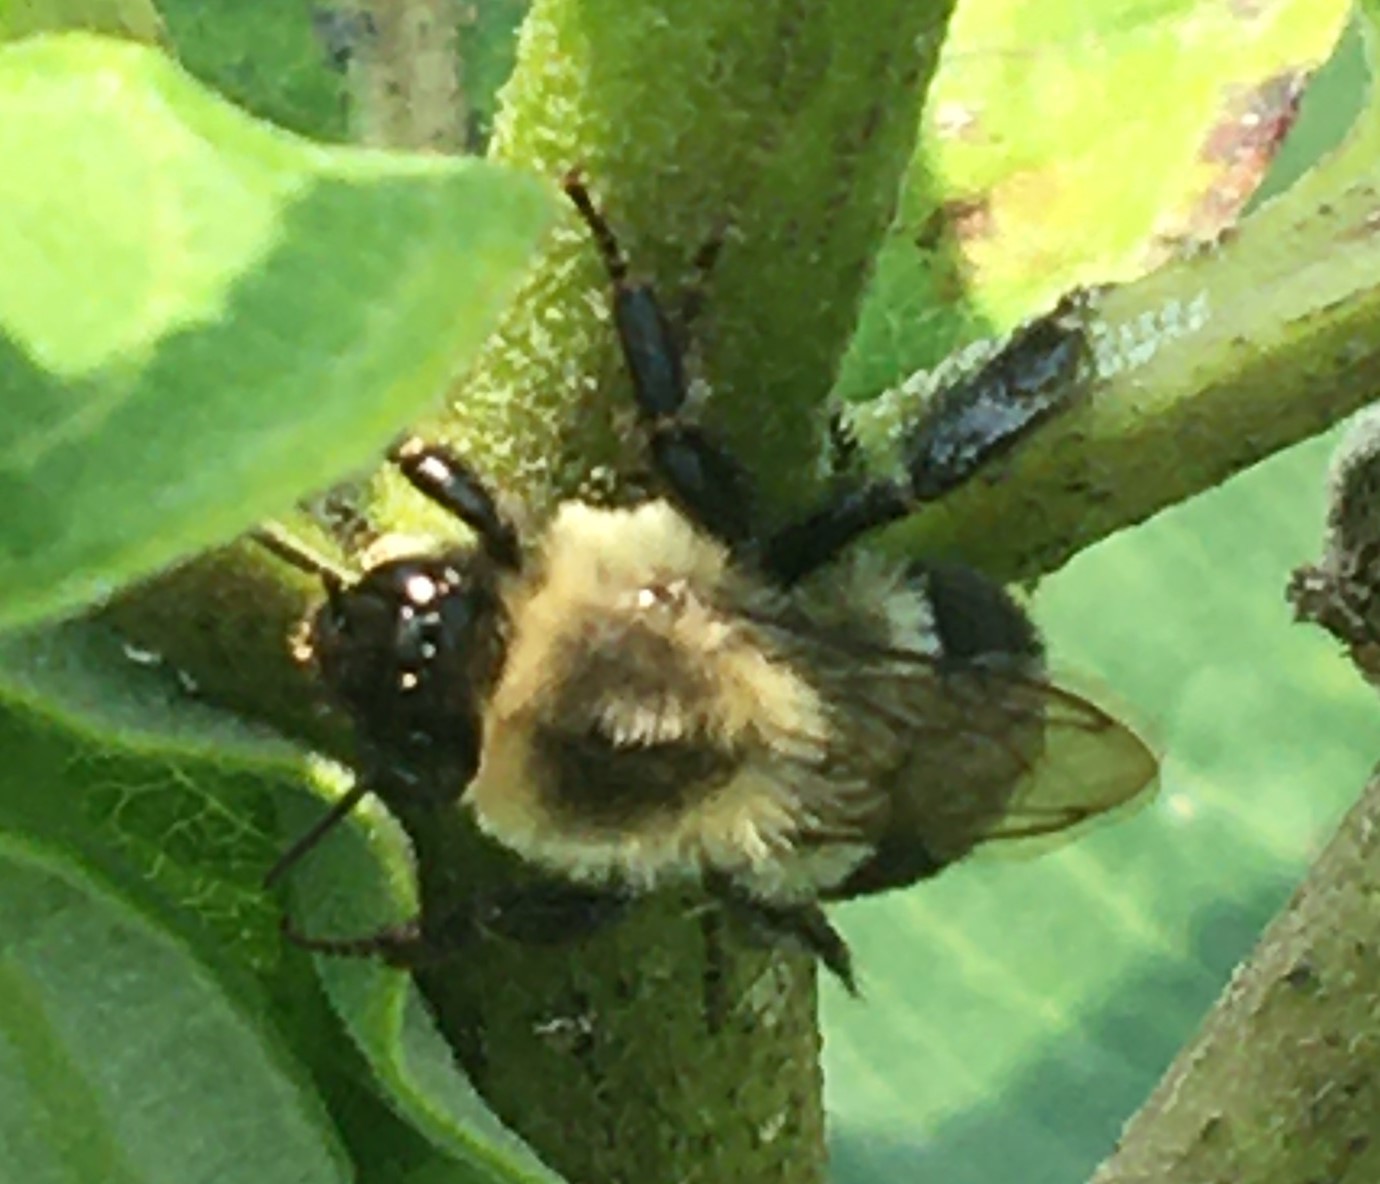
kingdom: Animalia
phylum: Arthropoda
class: Insecta
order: Hymenoptera
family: Apidae
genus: Bombus
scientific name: Bombus impatiens
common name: Common eastern bumble bee
